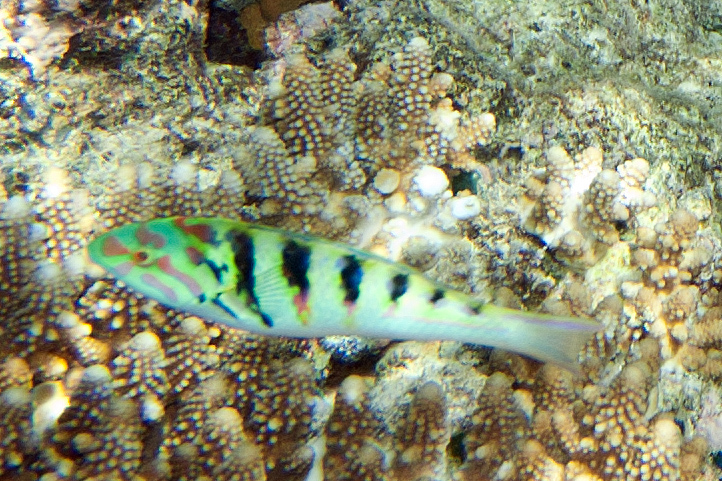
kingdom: Animalia
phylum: Chordata
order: Perciformes
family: Labridae
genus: Thalassoma
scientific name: Thalassoma hardwicke
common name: Sixbar wrasse
